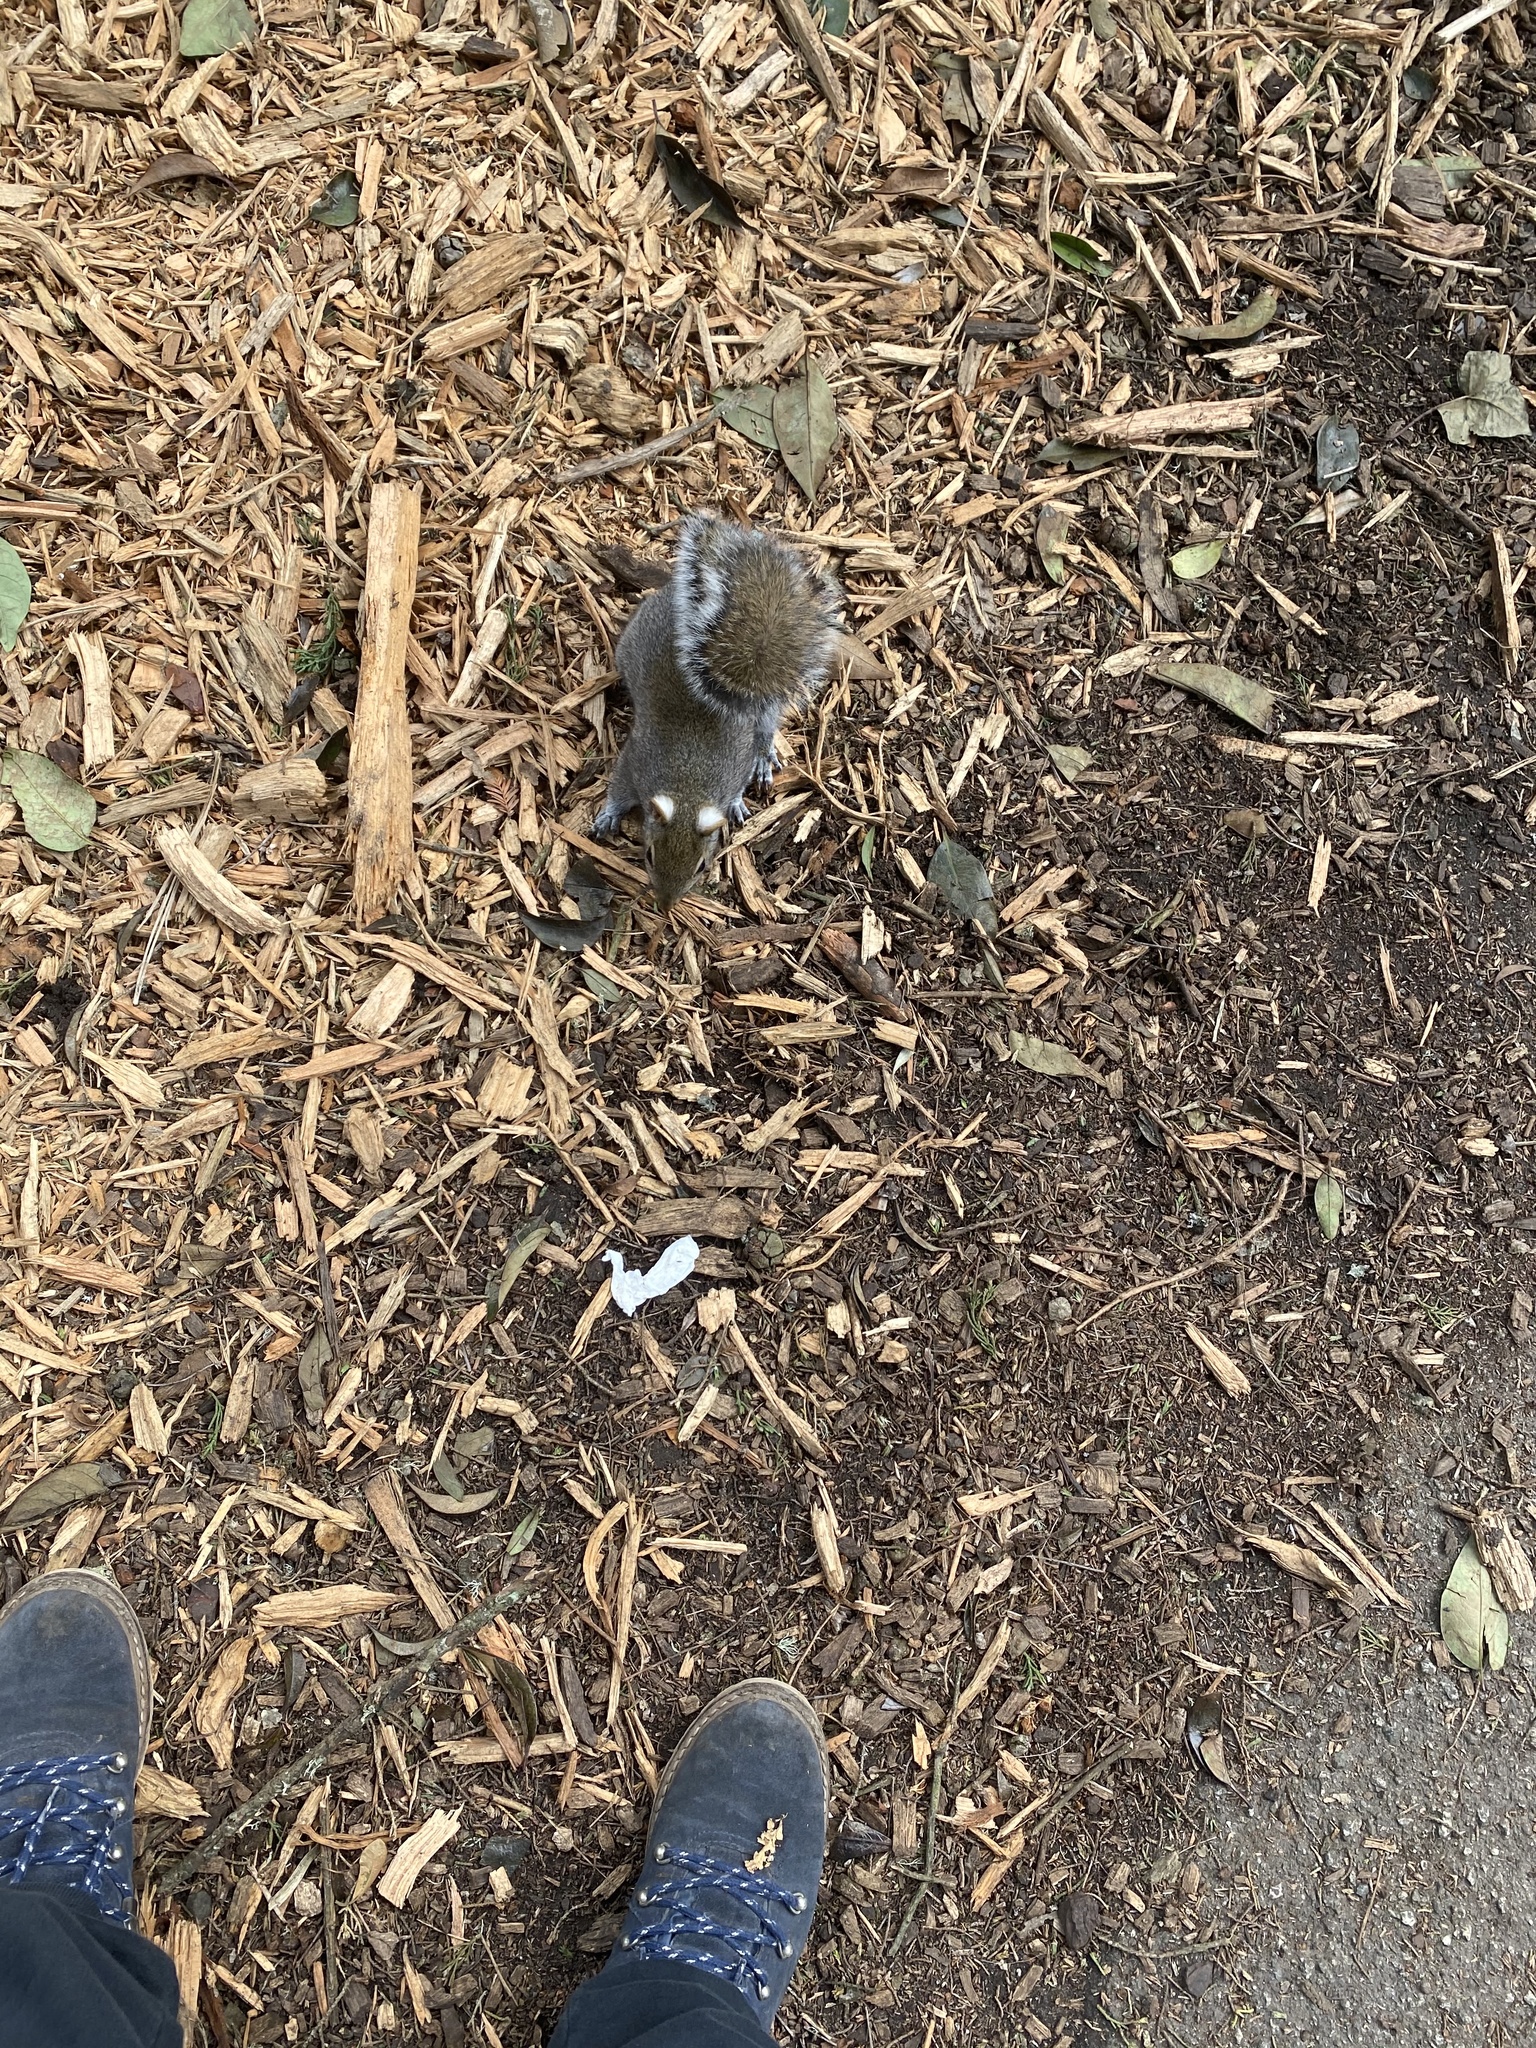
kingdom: Animalia
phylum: Chordata
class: Mammalia
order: Rodentia
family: Sciuridae
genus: Sciurus
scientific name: Sciurus carolinensis
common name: Eastern gray squirrel
